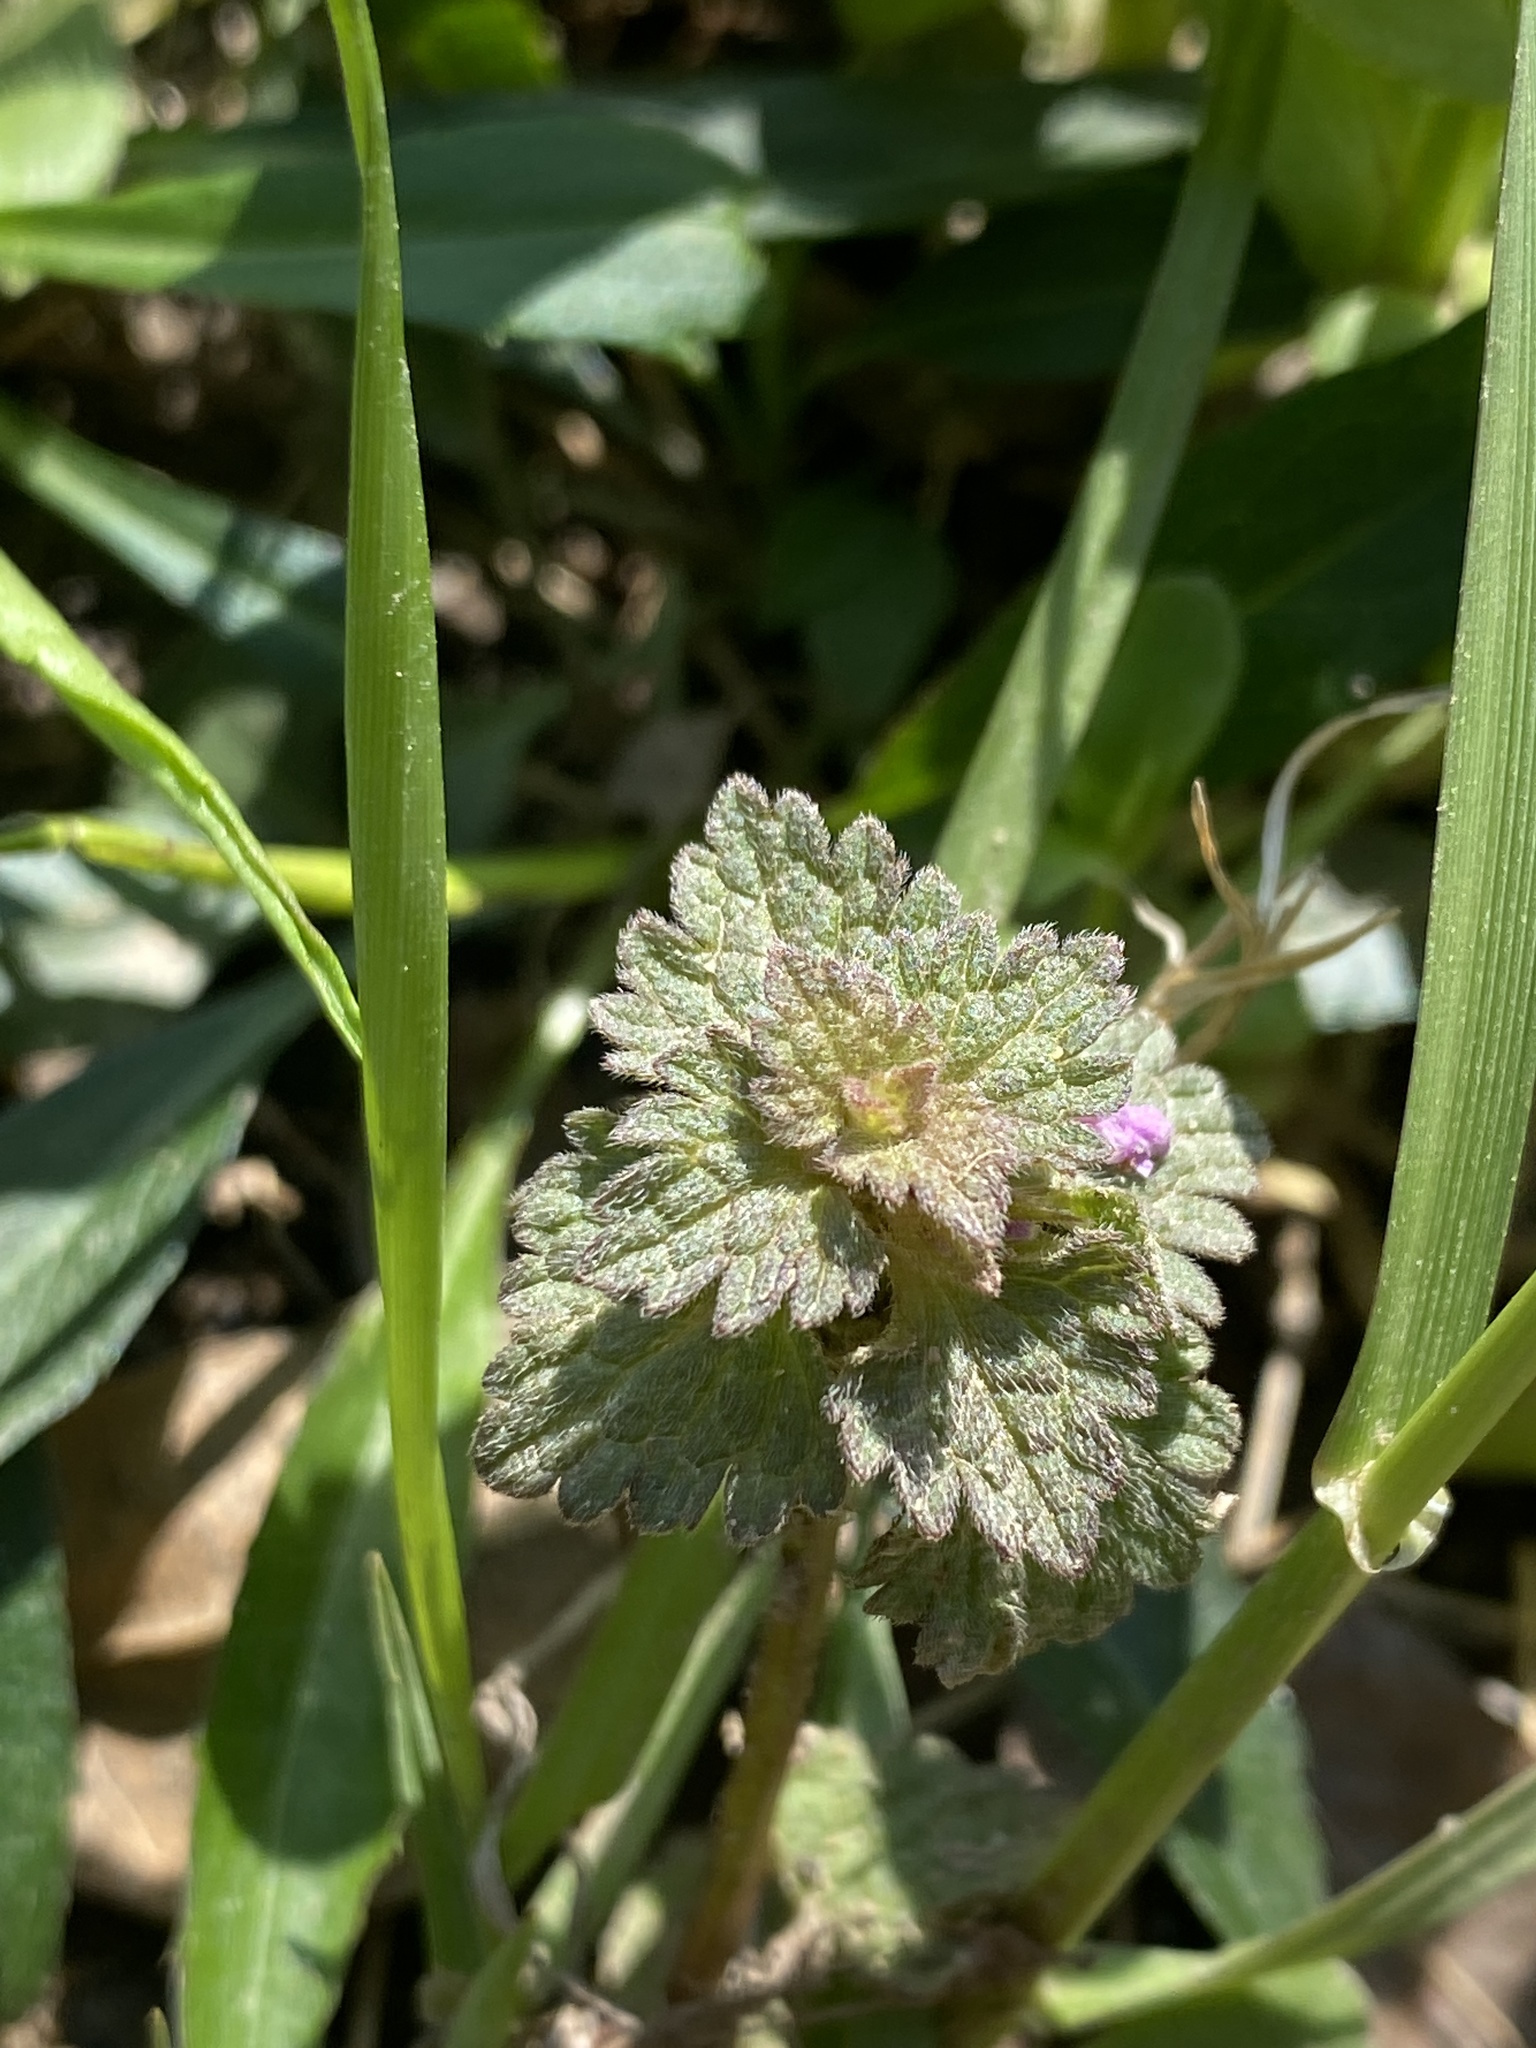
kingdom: Plantae
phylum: Tracheophyta
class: Magnoliopsida
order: Lamiales
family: Lamiaceae
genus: Lamium
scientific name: Lamium hybridum
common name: Cut-leaved dead-nettle
